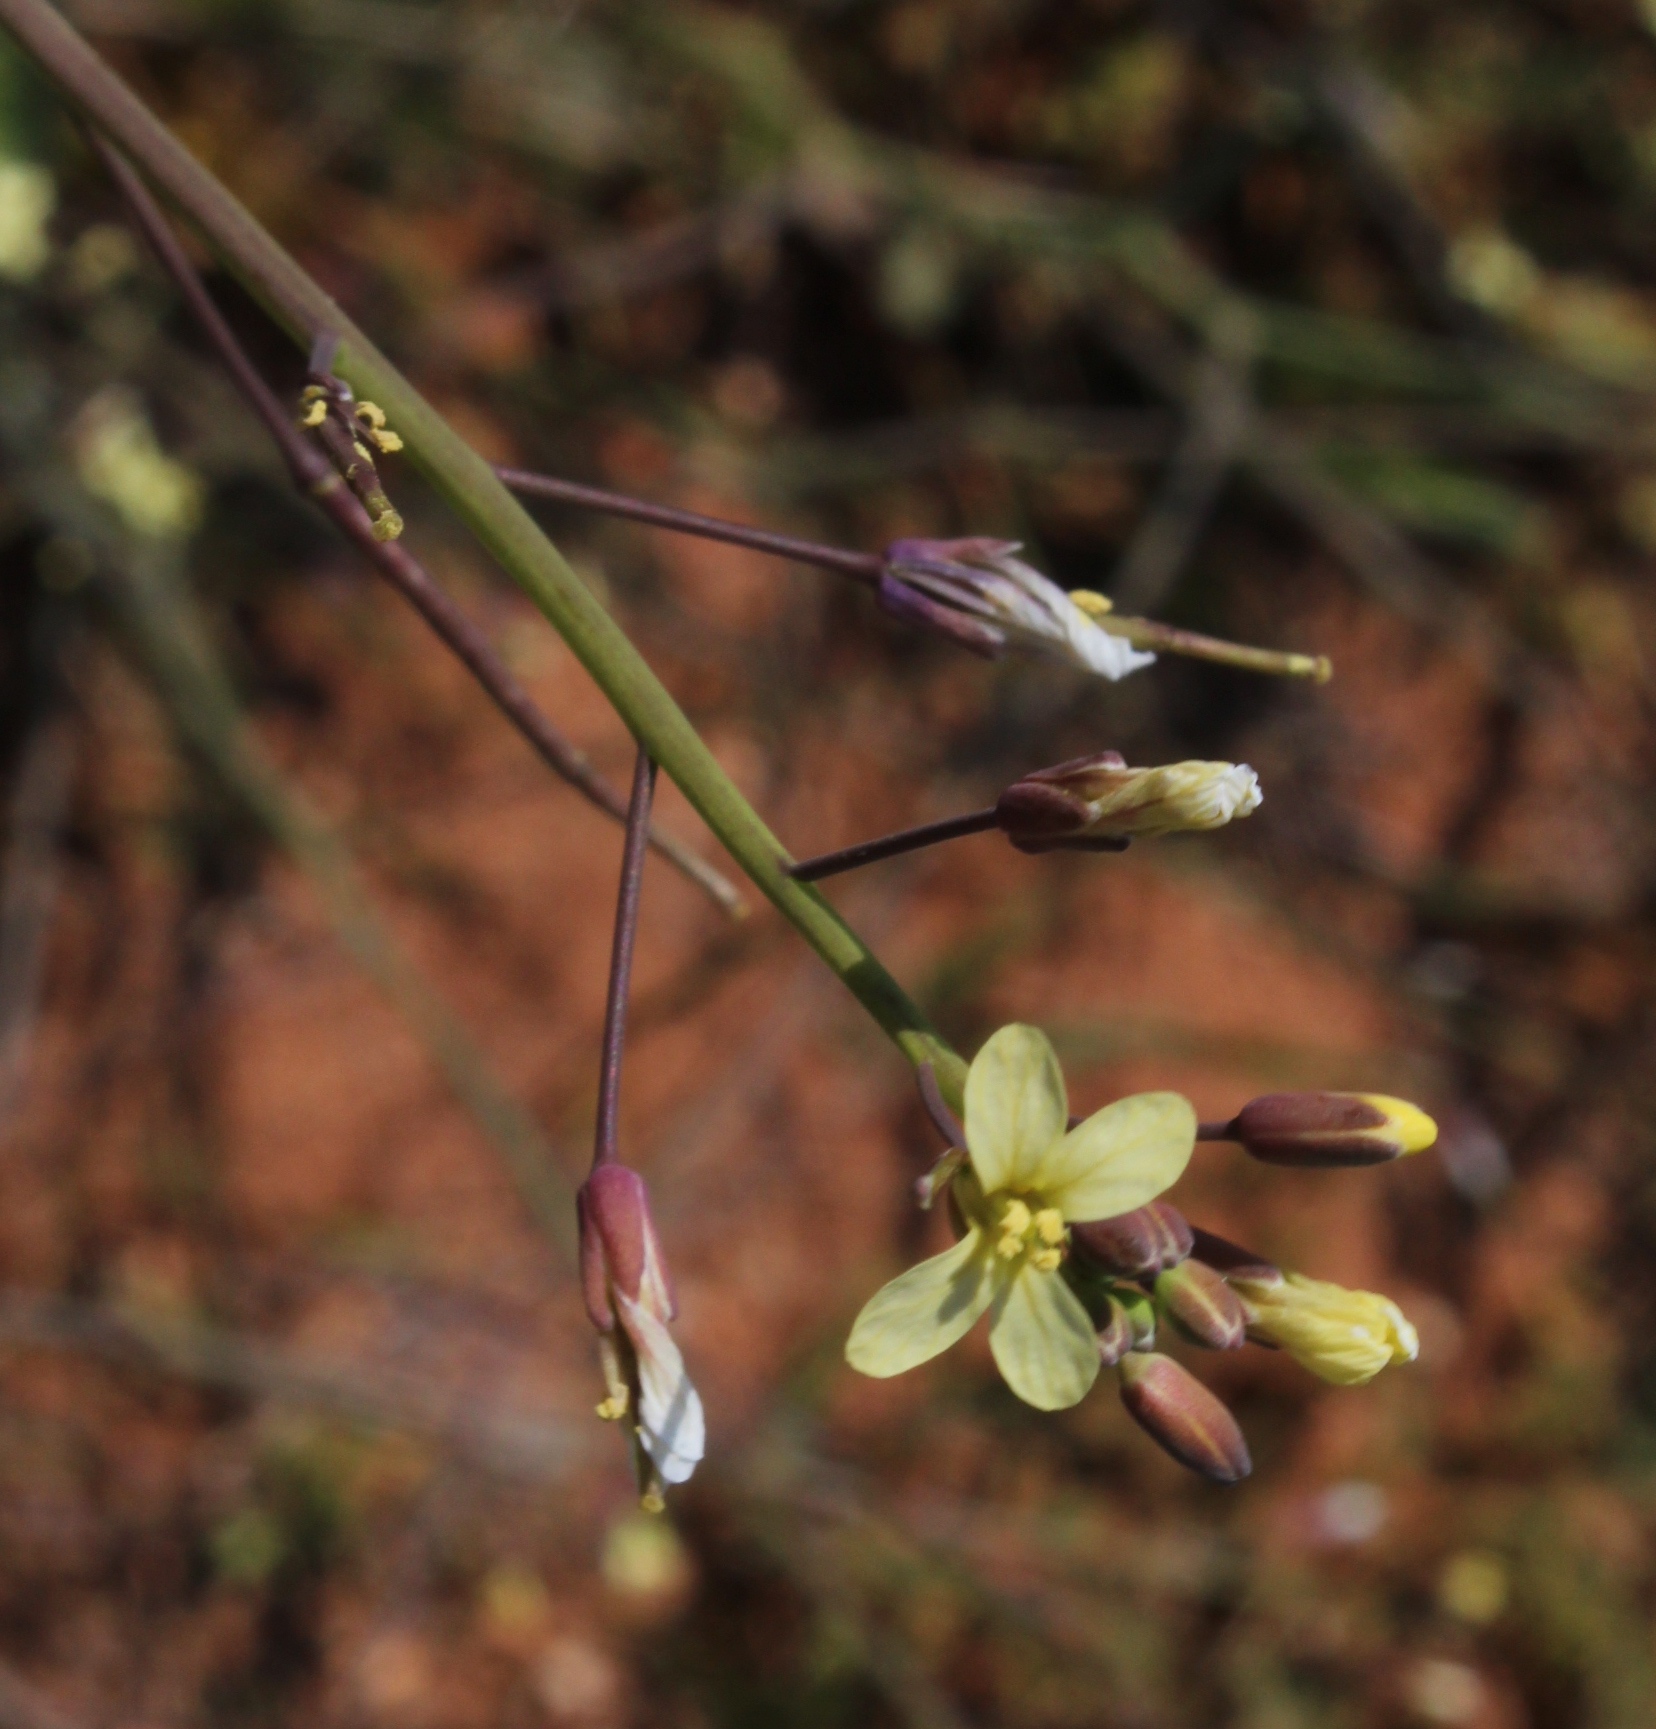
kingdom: Plantae
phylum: Tracheophyta
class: Magnoliopsida
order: Brassicales
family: Brassicaceae
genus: Brassica
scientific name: Brassica tournefortii
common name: Pale cabbage
